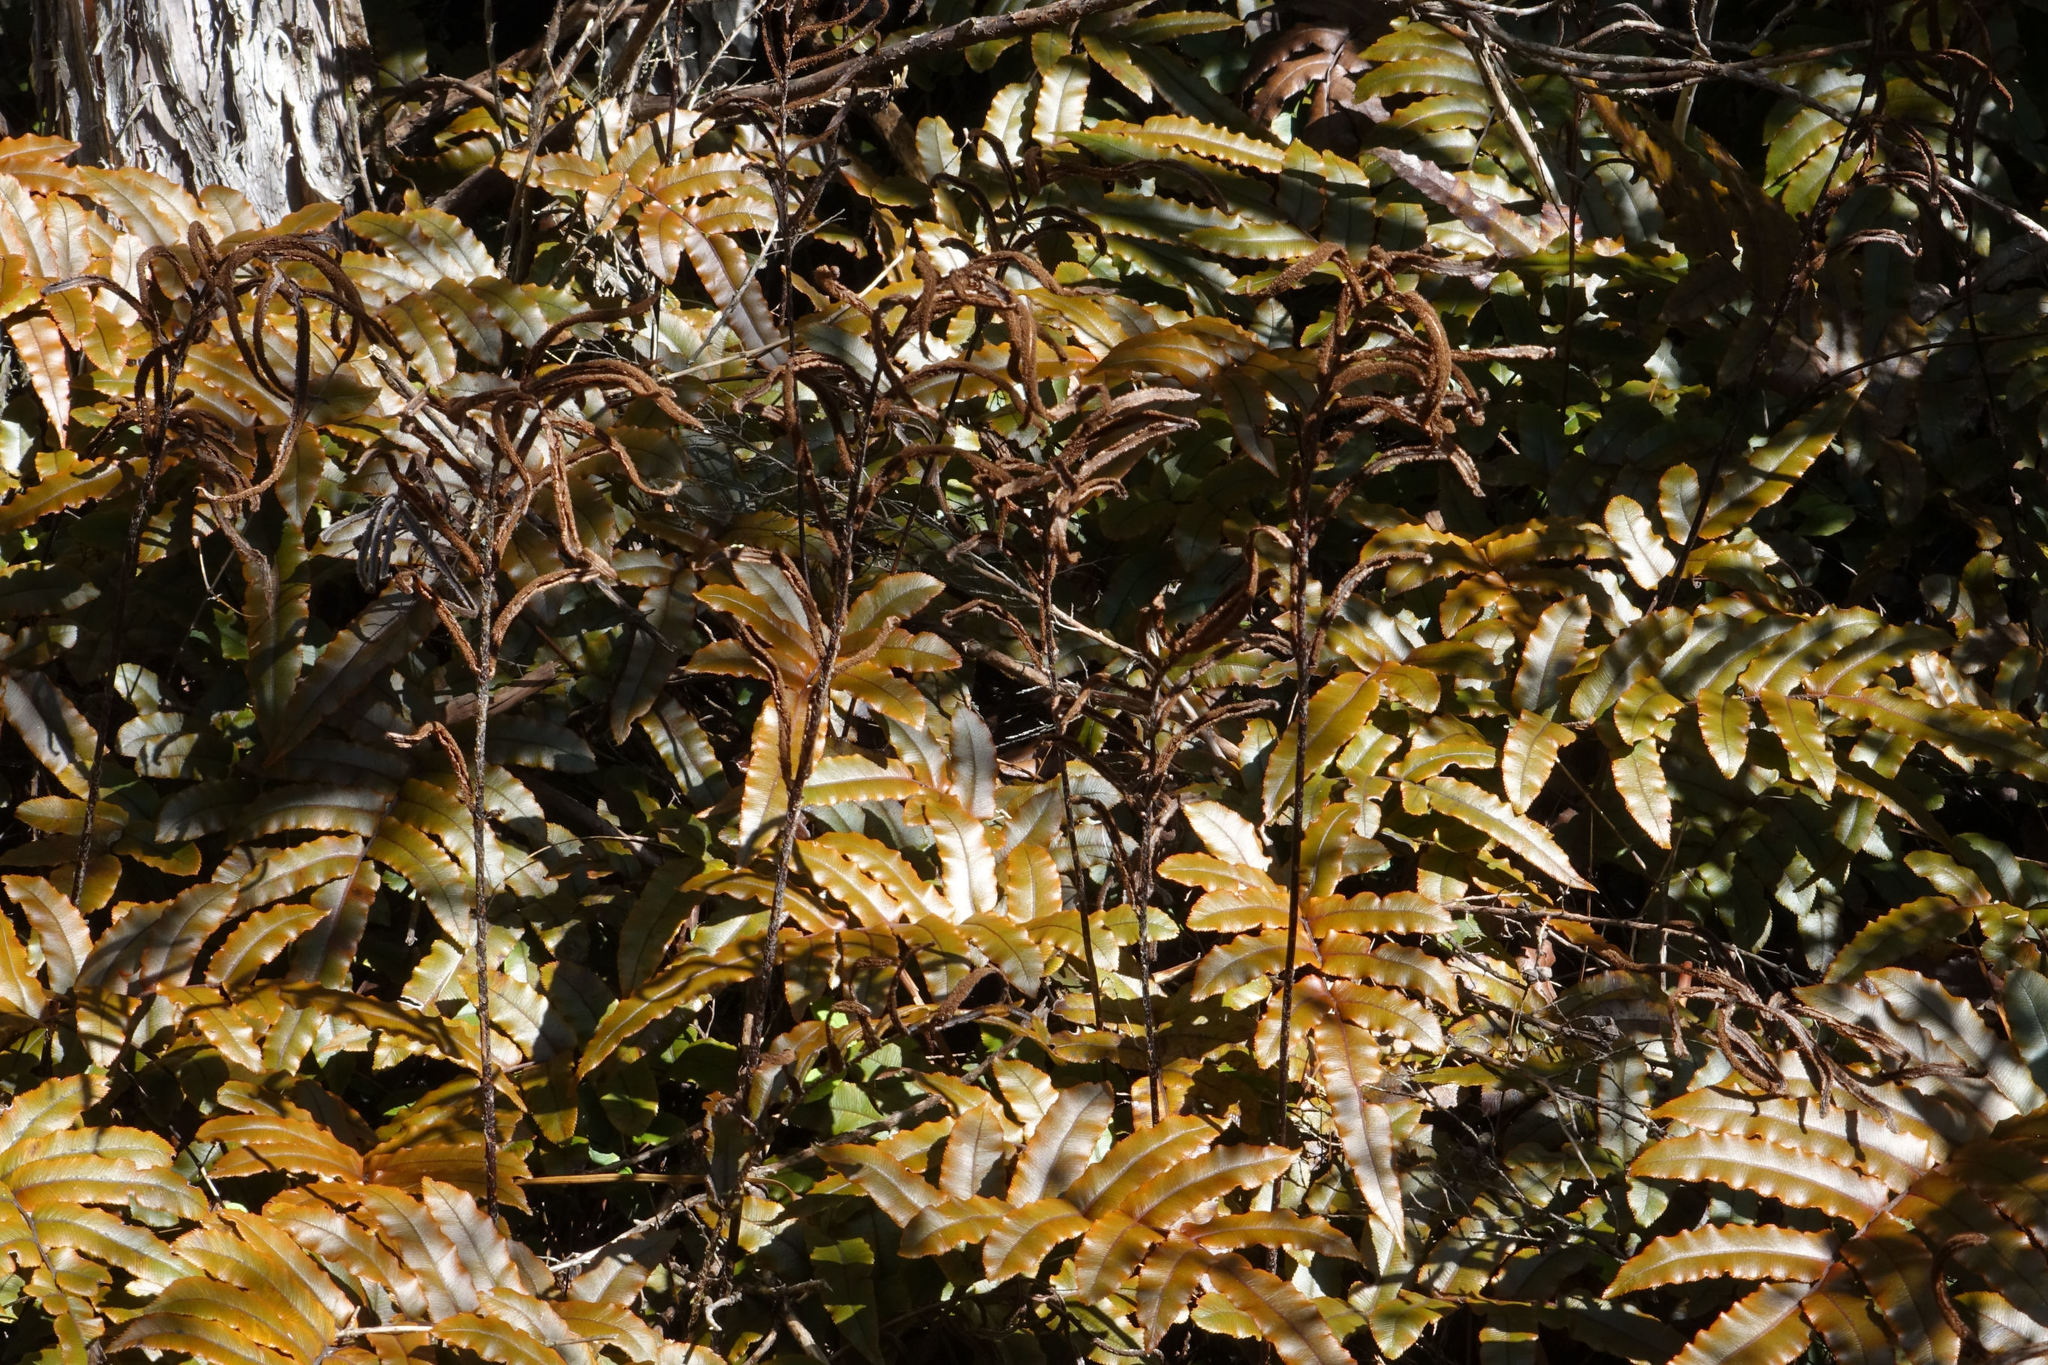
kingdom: Plantae
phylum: Tracheophyta
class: Polypodiopsida
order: Polypodiales
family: Blechnaceae
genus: Parablechnum
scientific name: Parablechnum procerum
